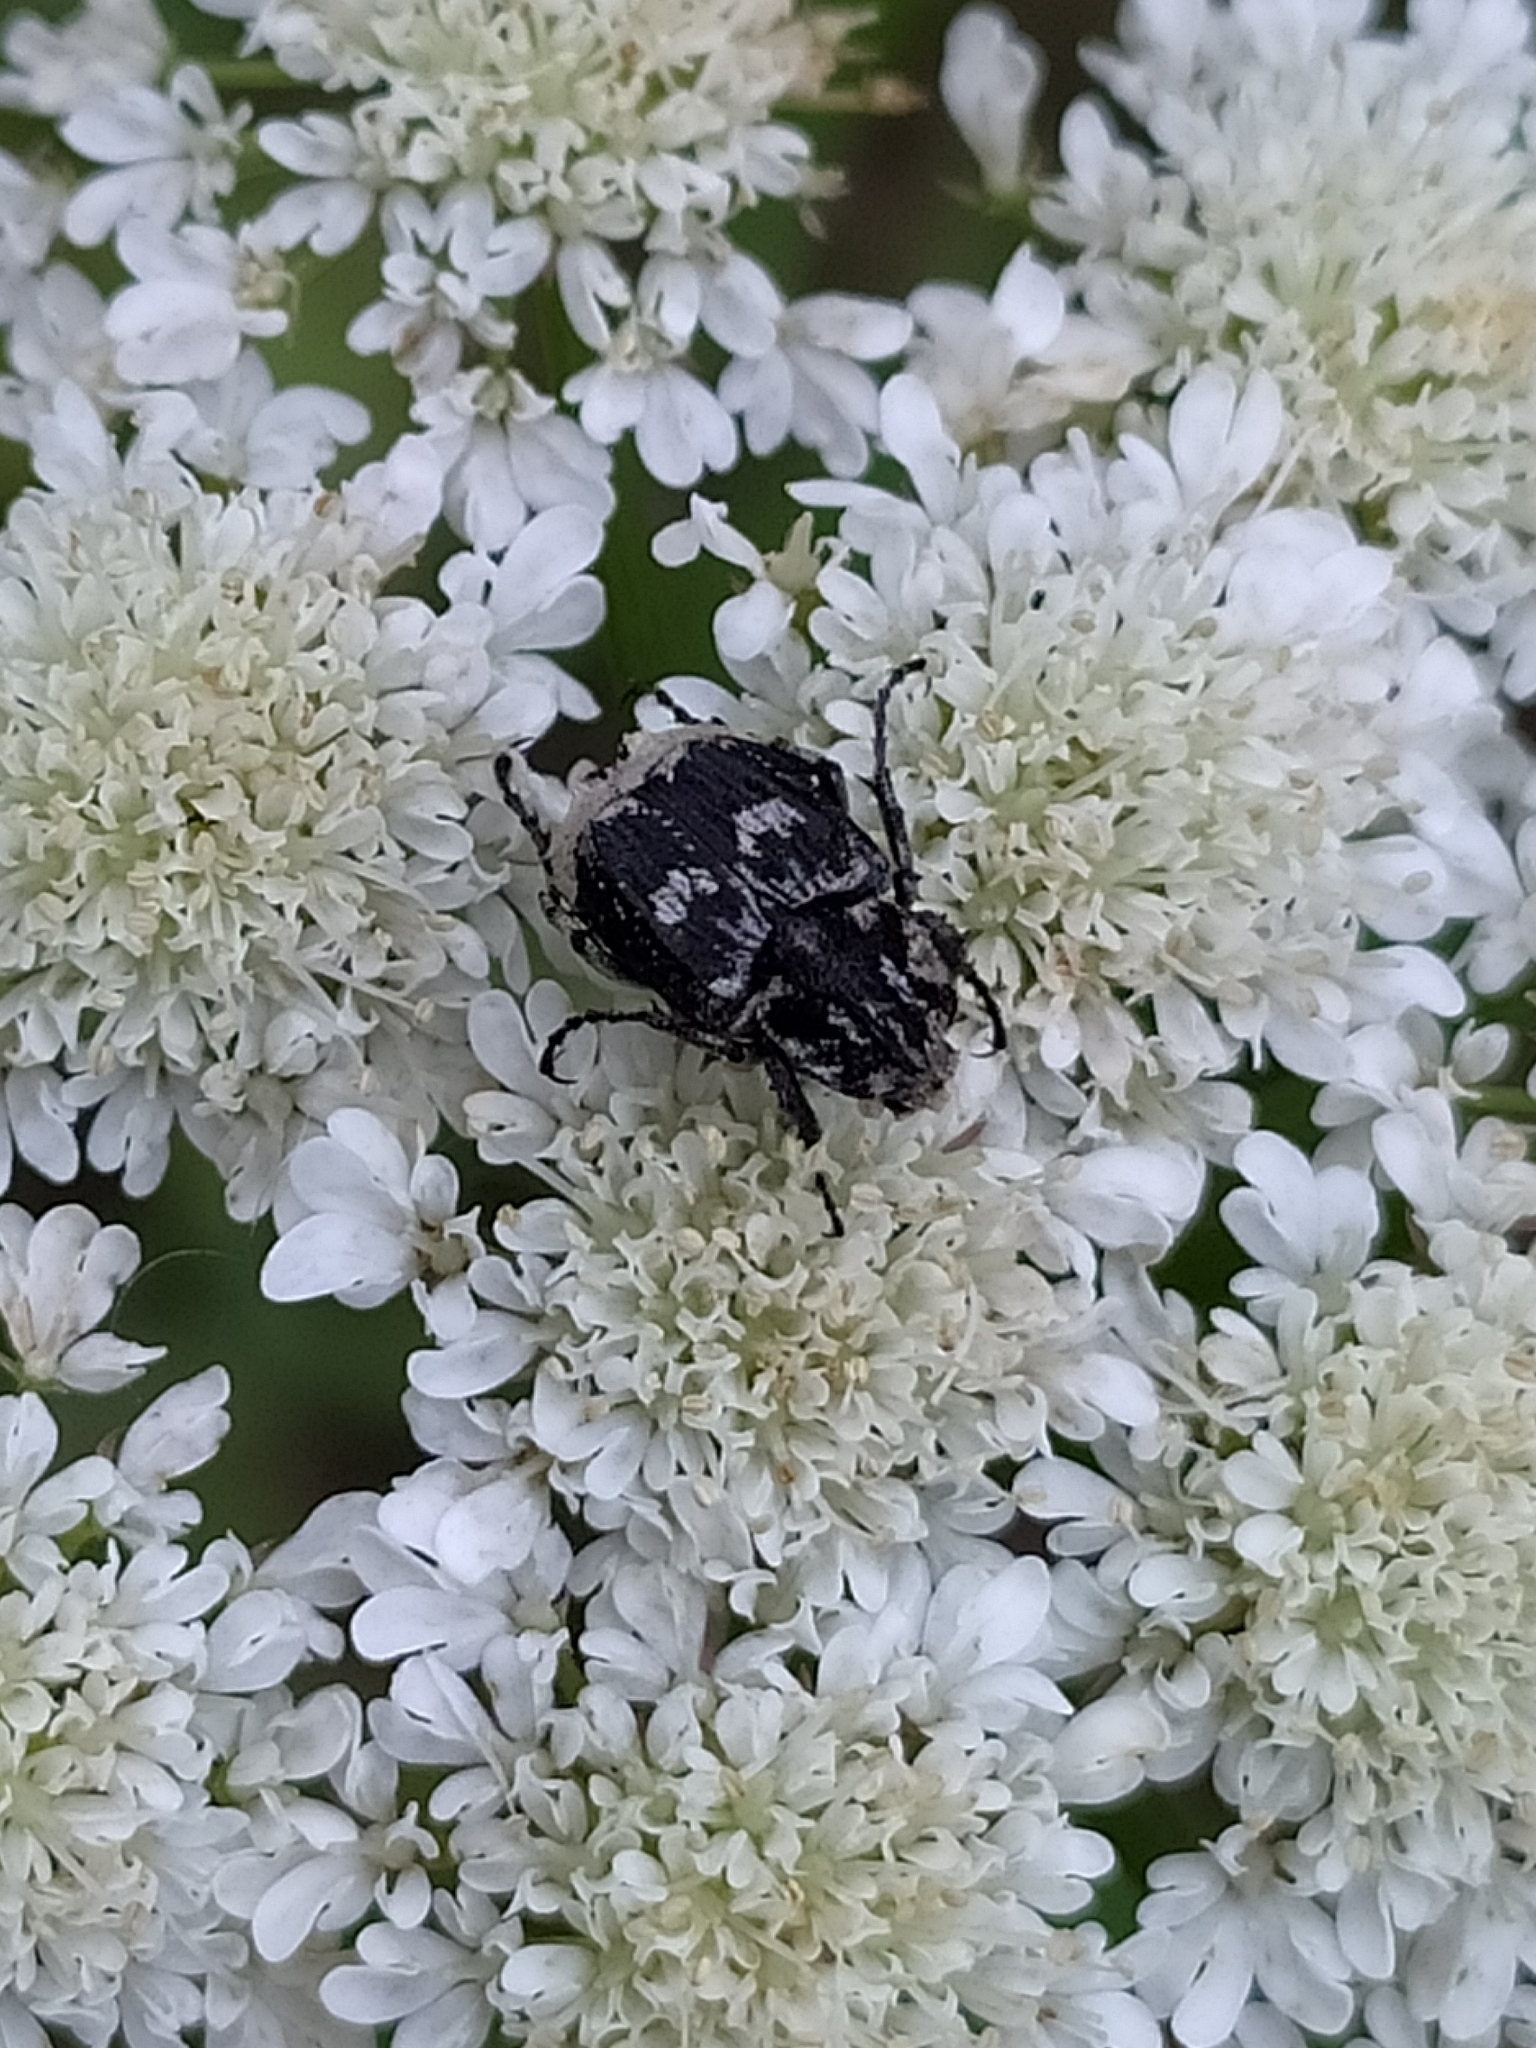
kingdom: Animalia
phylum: Arthropoda
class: Insecta
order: Coleoptera
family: Scarabaeidae
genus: Valgus
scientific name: Valgus hemipterus
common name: Bug flower chafer
